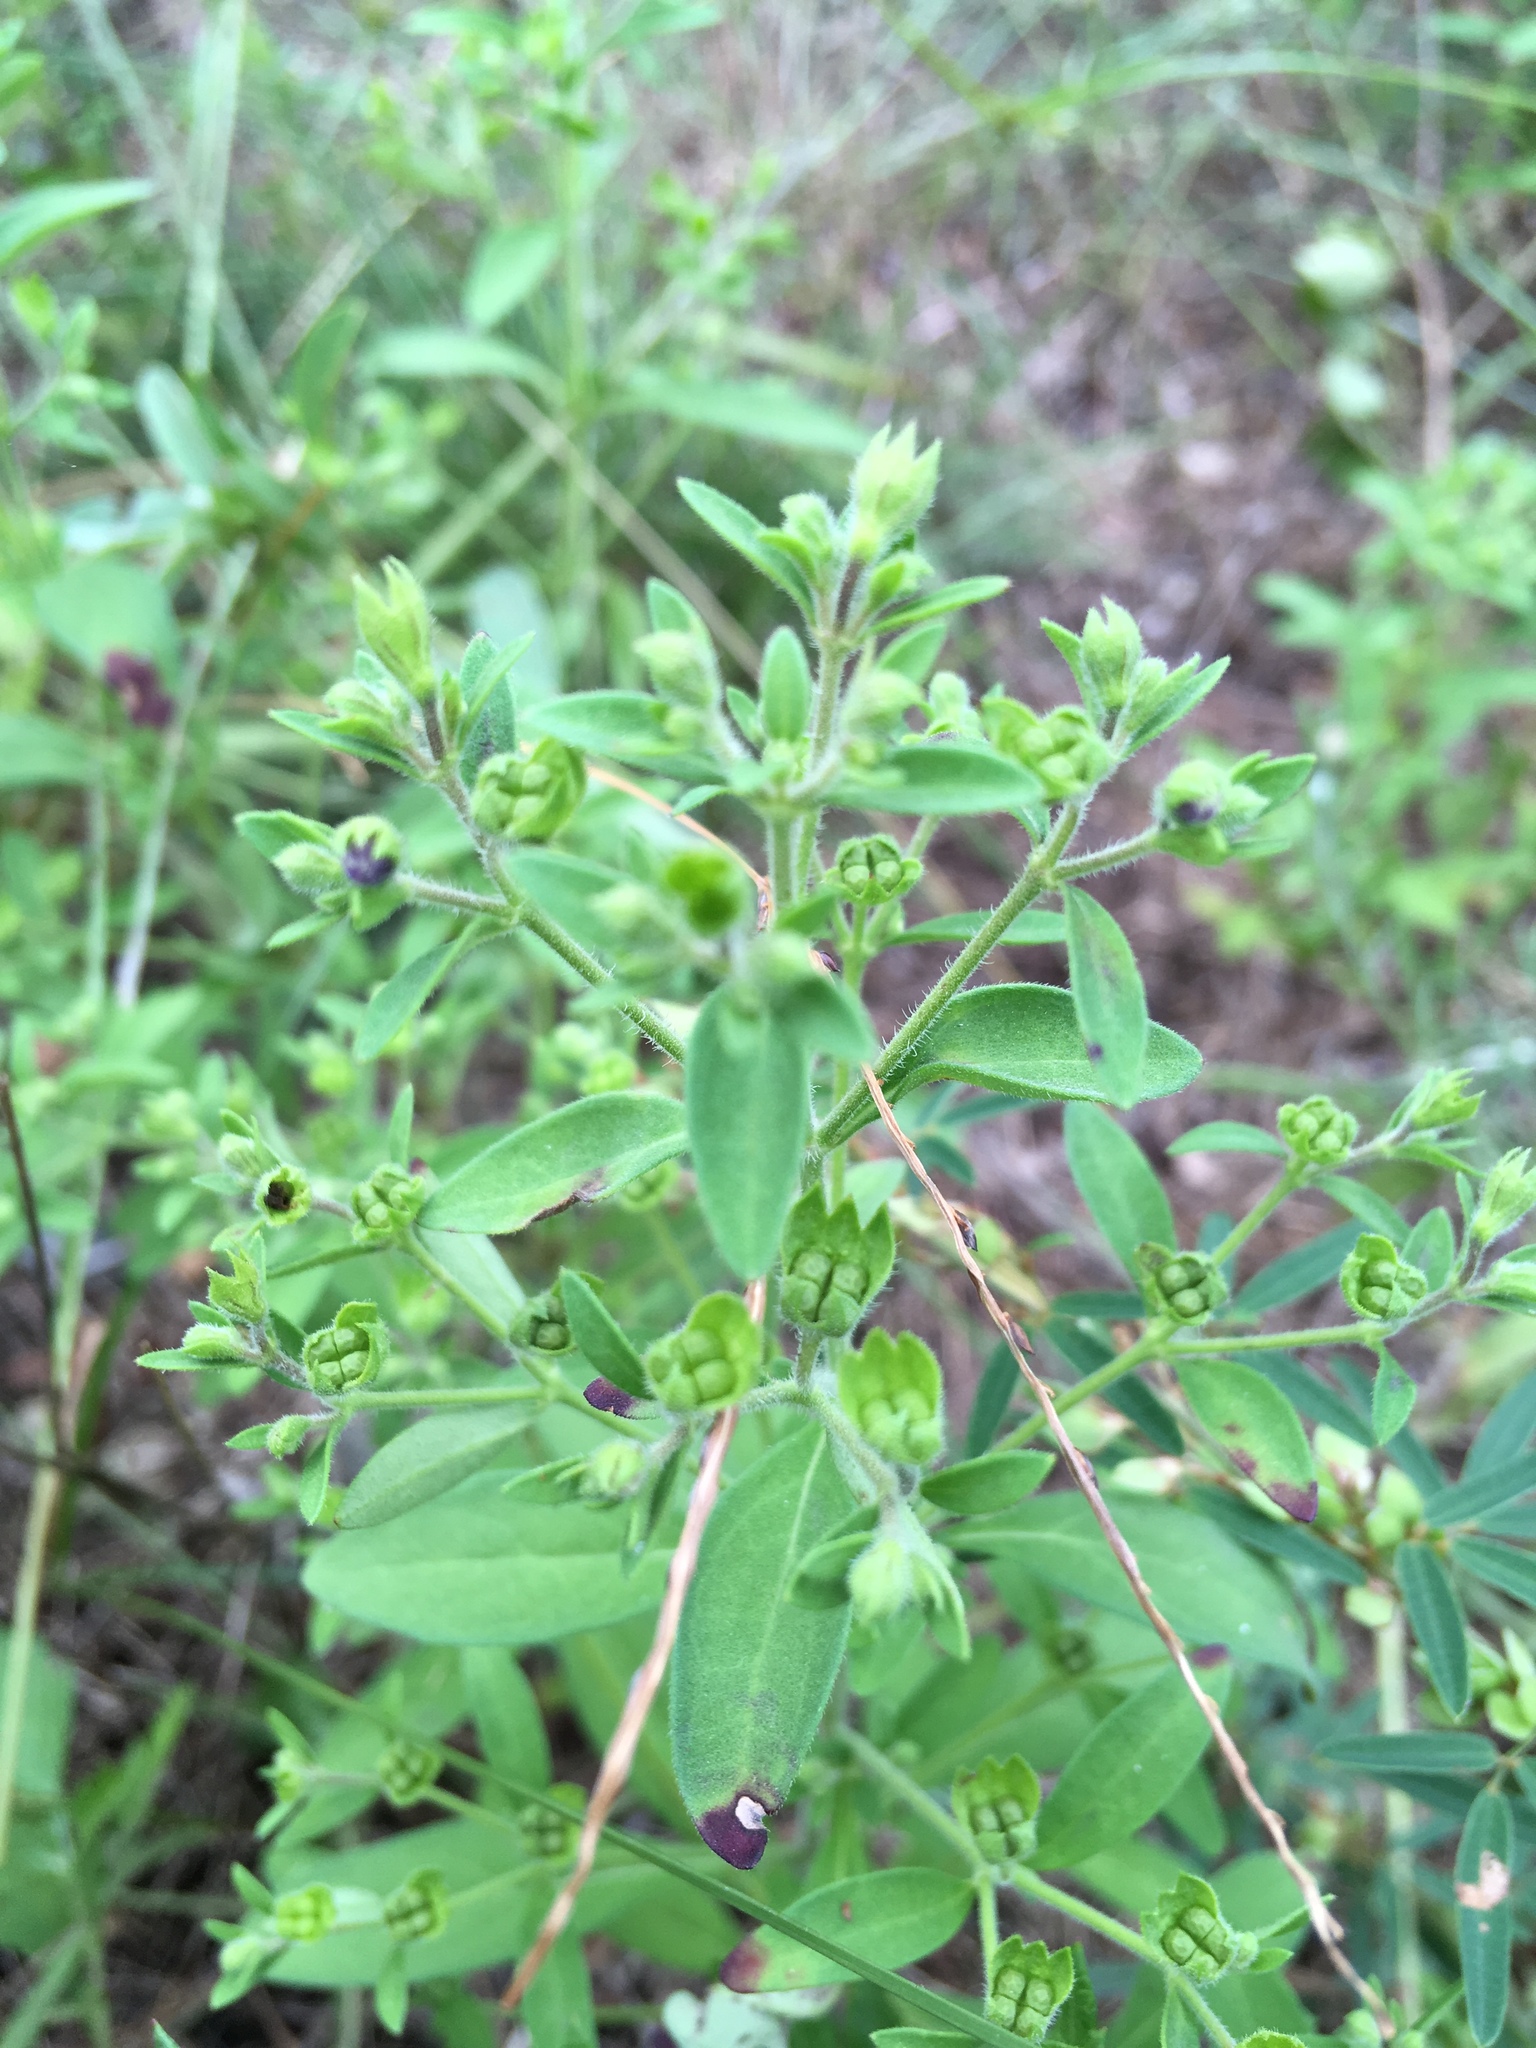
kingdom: Plantae
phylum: Tracheophyta
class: Magnoliopsida
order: Lamiales
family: Lamiaceae
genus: Trichostema
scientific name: Trichostema dichotomum
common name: Bastard pennyroyal
